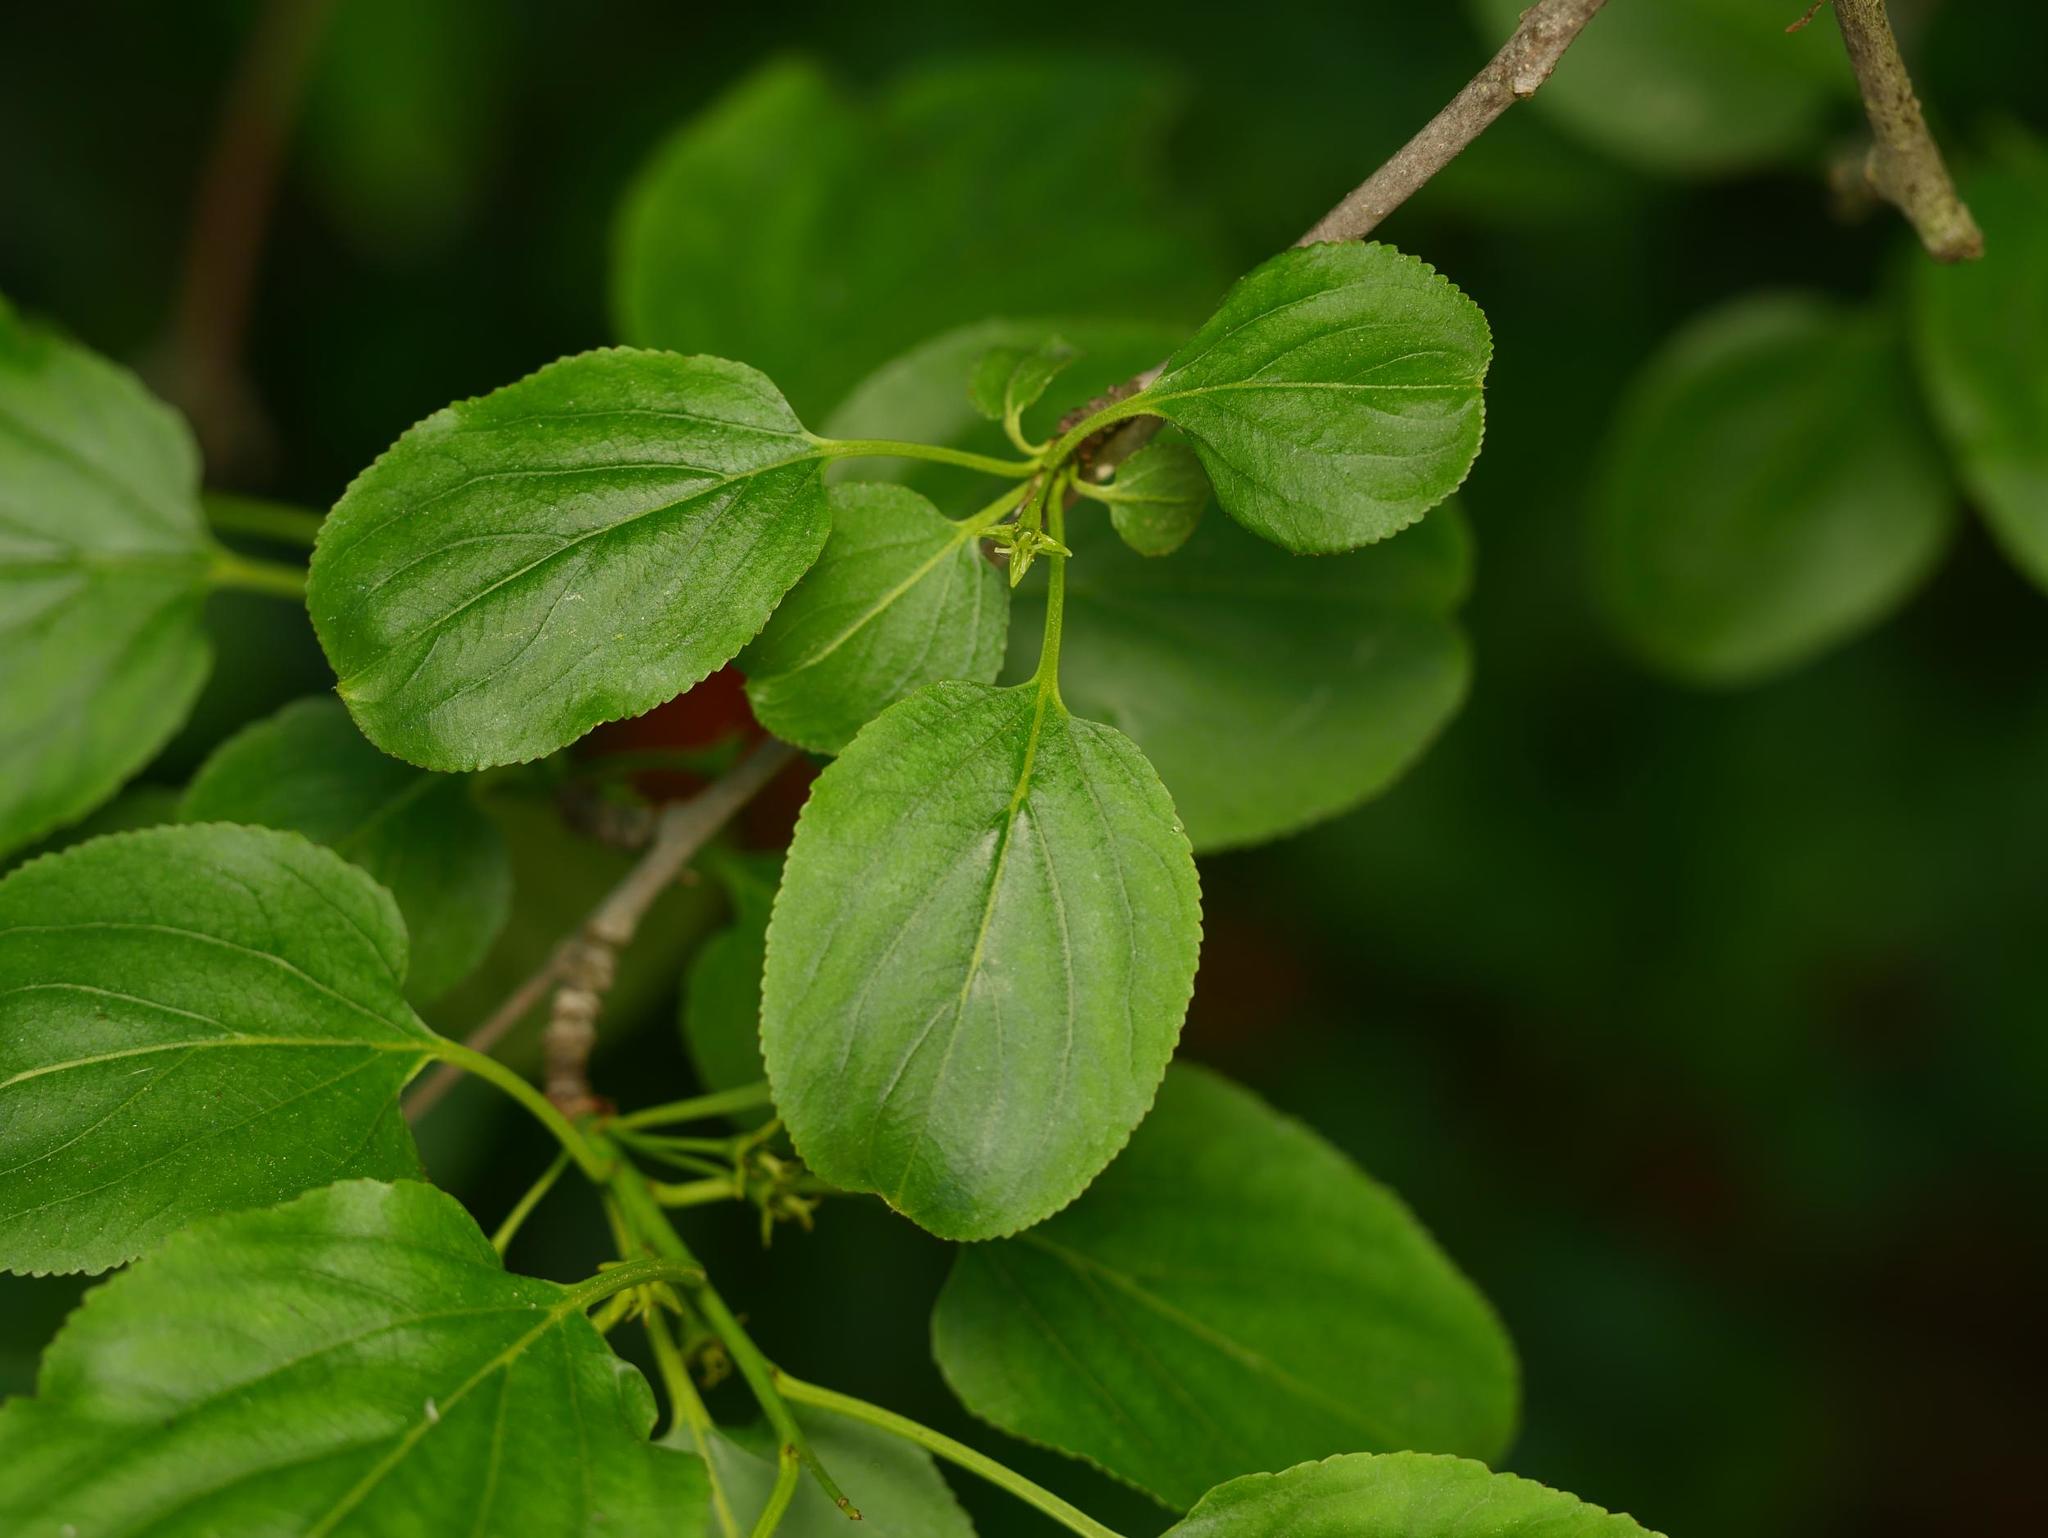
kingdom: Plantae
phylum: Tracheophyta
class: Magnoliopsida
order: Rosales
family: Rhamnaceae
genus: Rhamnus
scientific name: Rhamnus cathartica
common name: Common buckthorn
